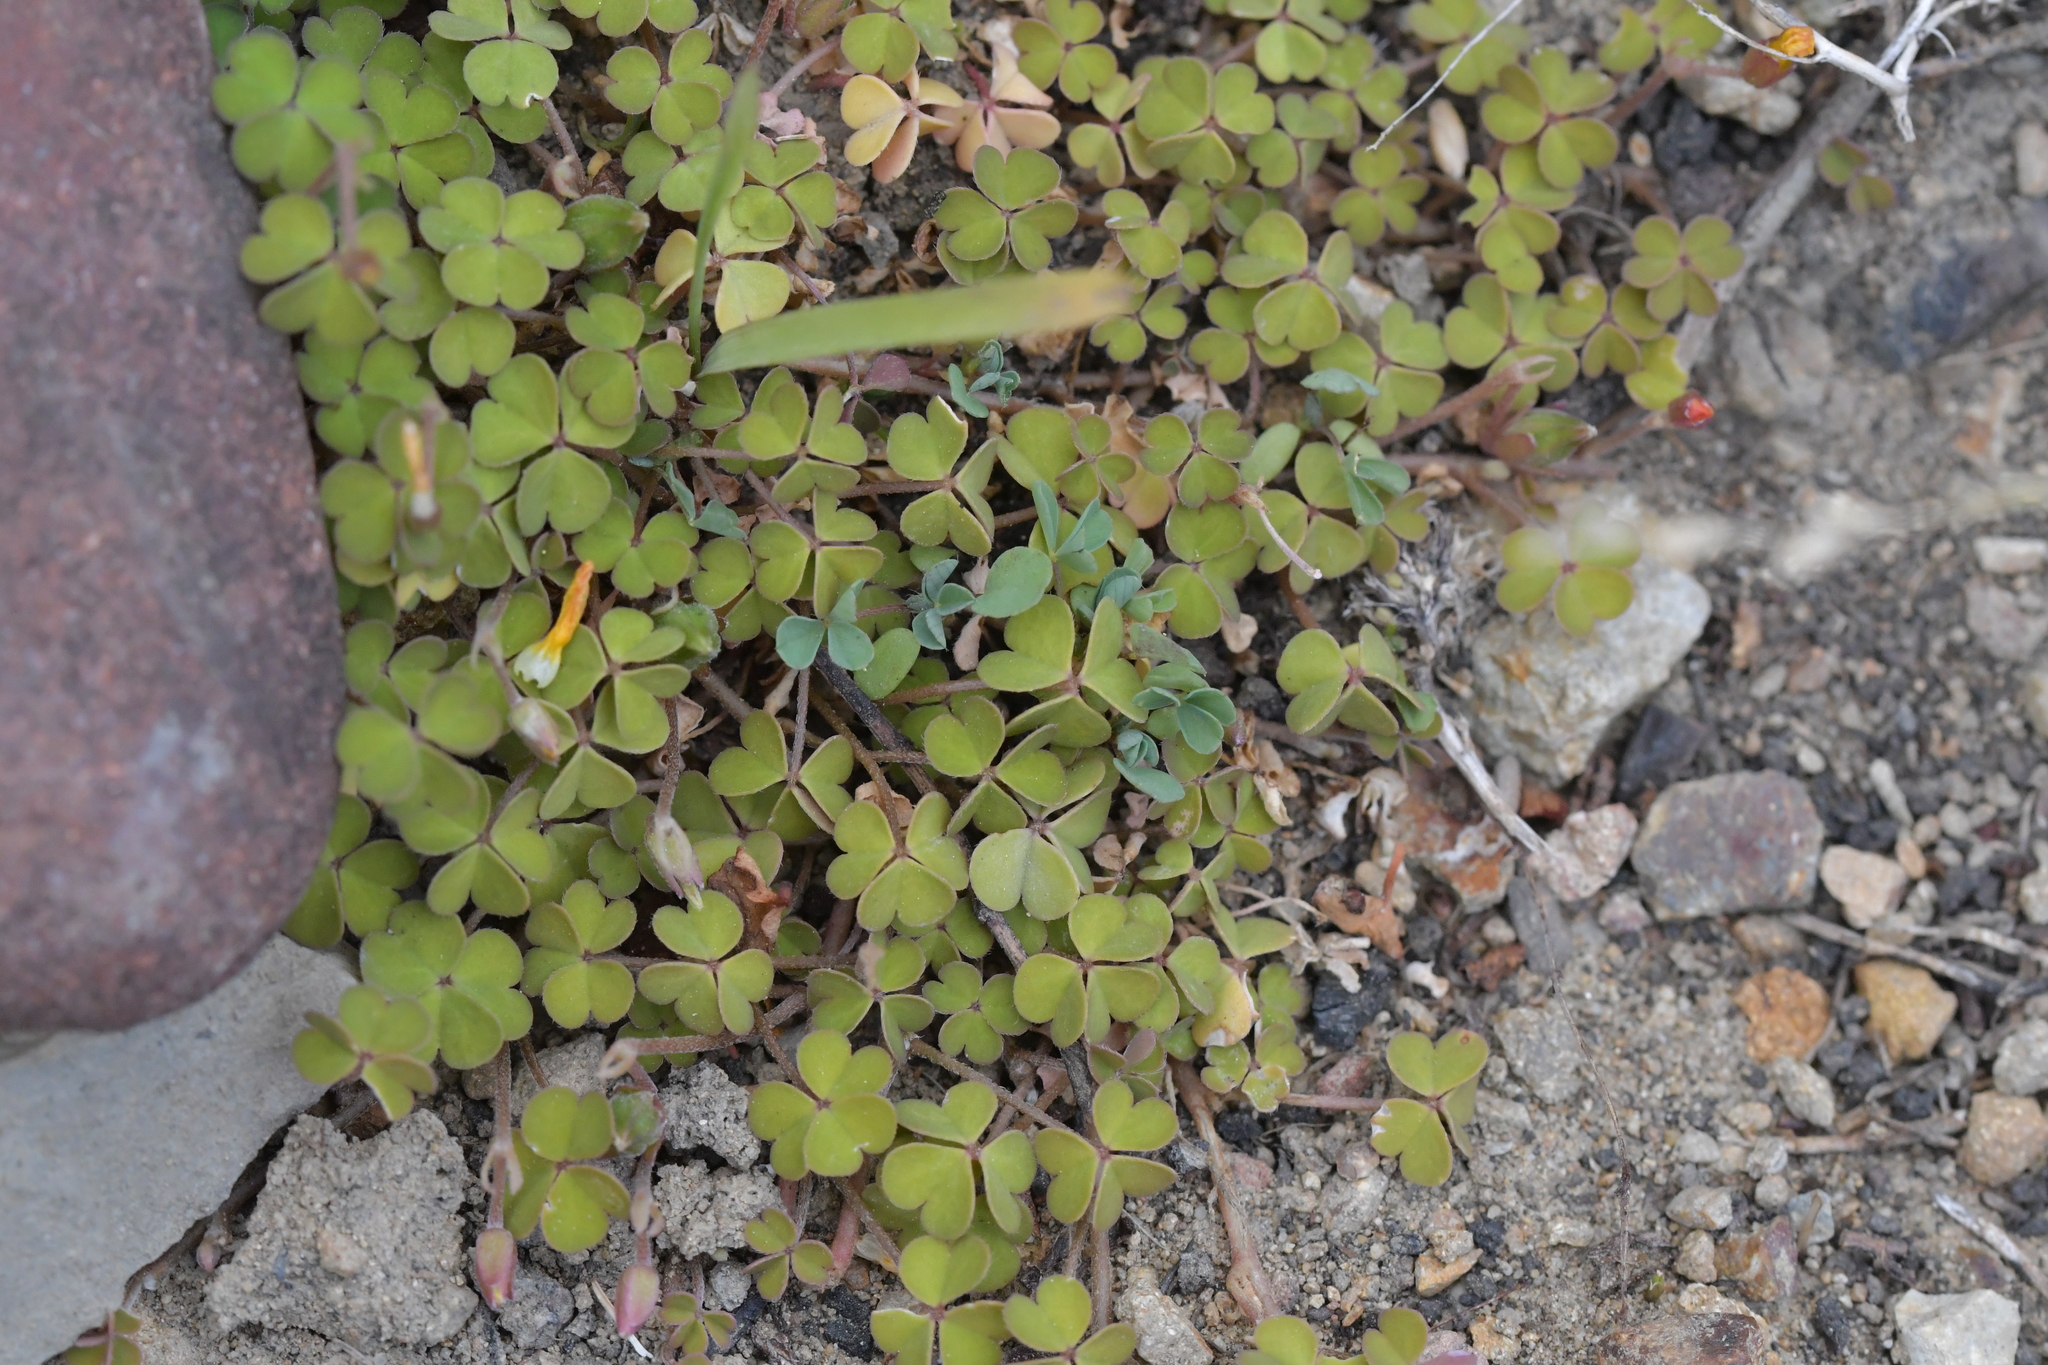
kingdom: Plantae
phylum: Tracheophyta
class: Magnoliopsida
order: Oxalidales
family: Oxalidaceae
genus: Oxalis
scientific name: Oxalis exilis
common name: Least yellow-sorrel
